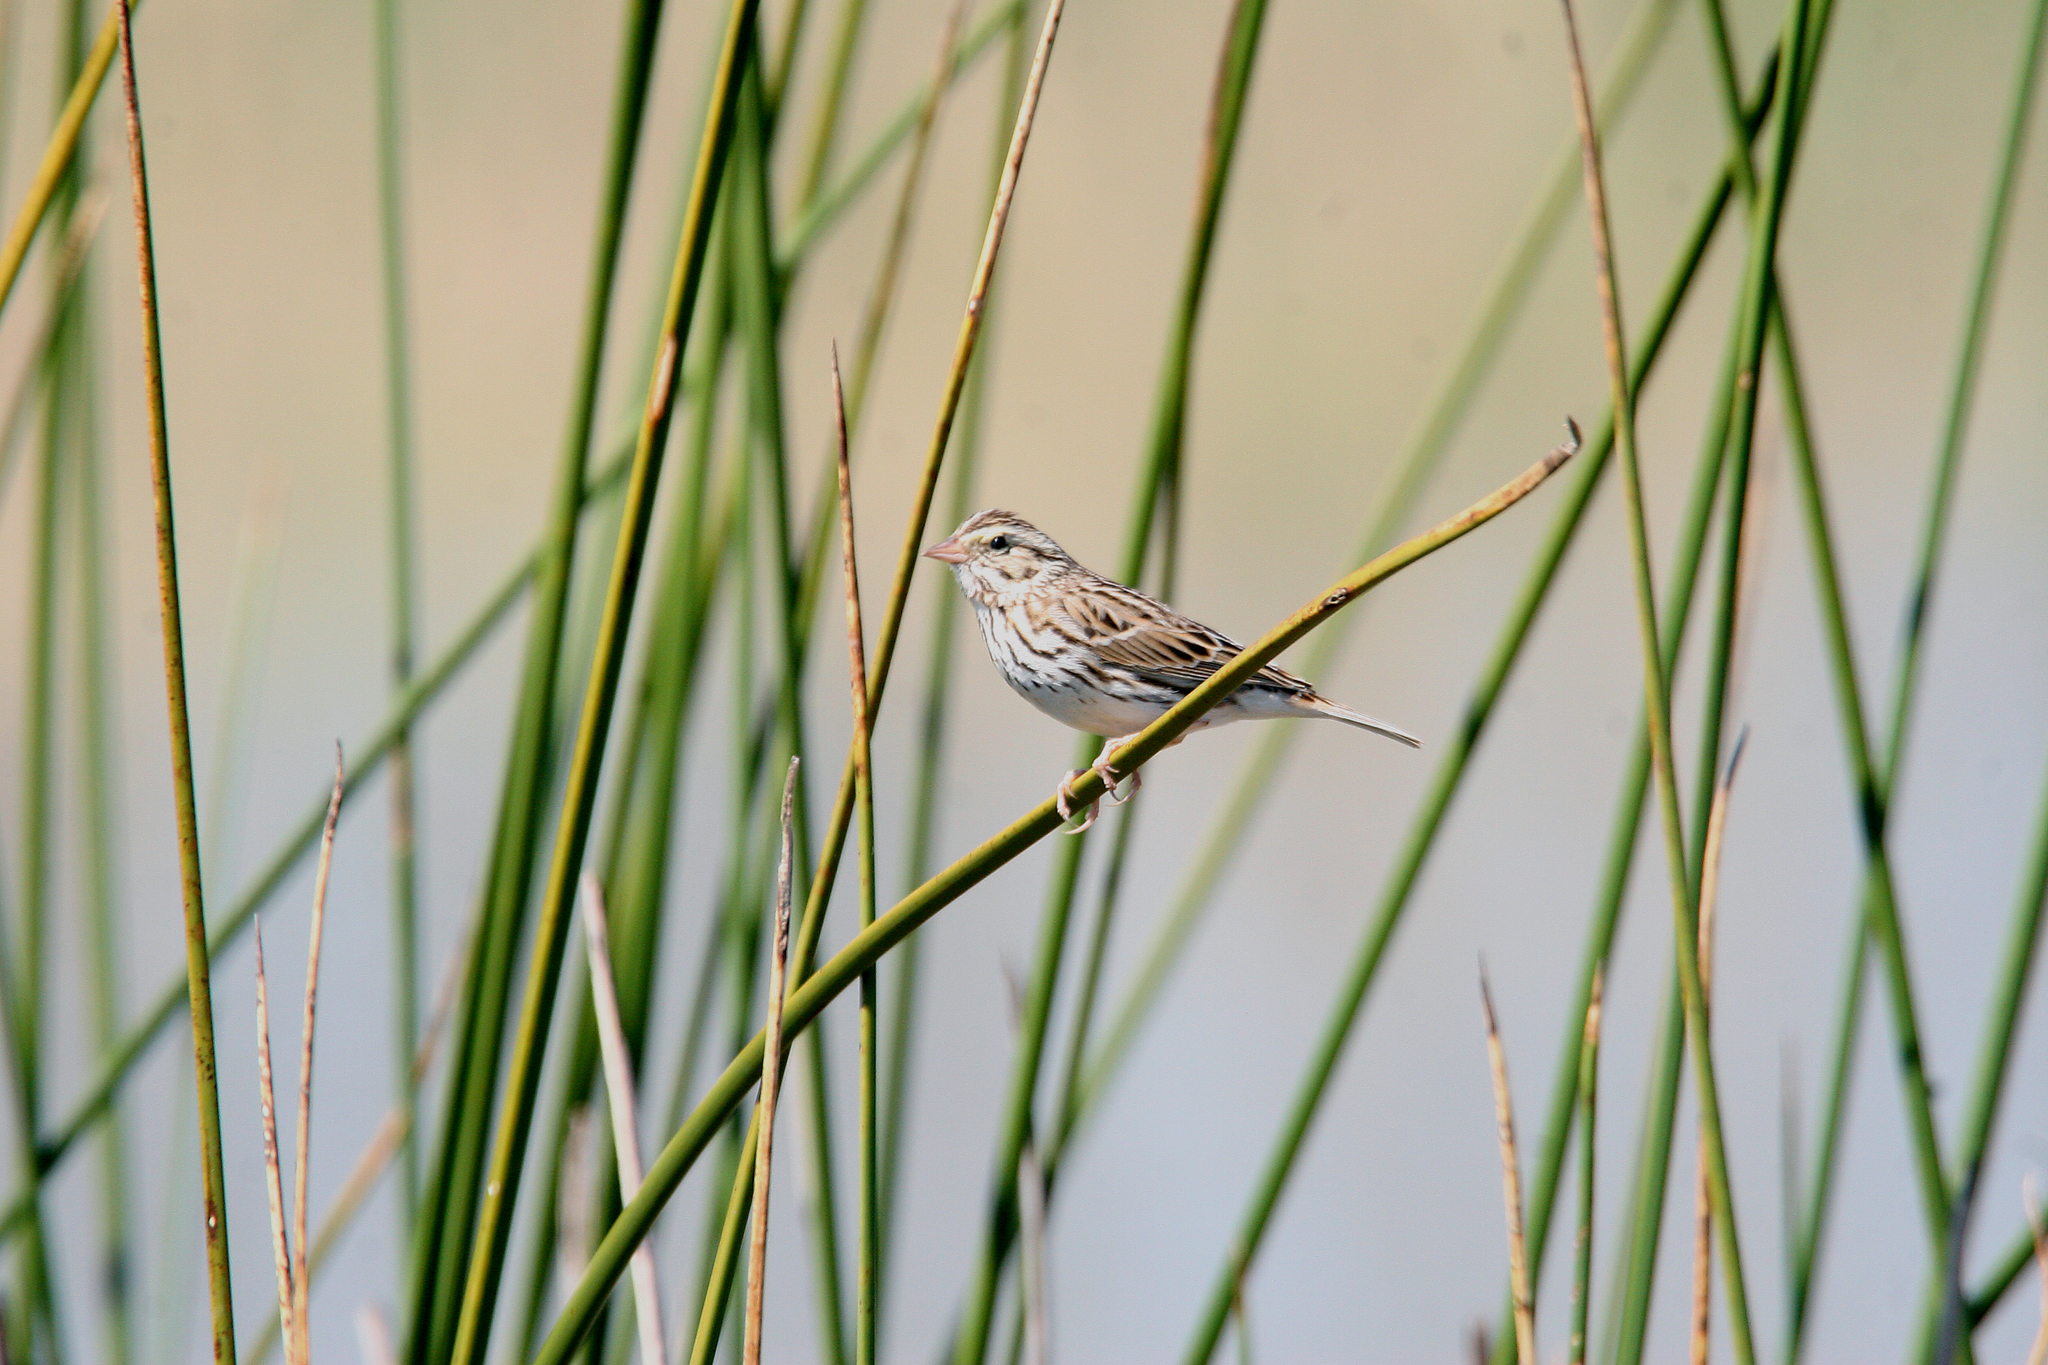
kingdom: Animalia
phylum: Chordata
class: Aves
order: Passeriformes
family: Passerellidae
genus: Passerculus
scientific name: Passerculus sandwichensis
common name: Savannah sparrow
